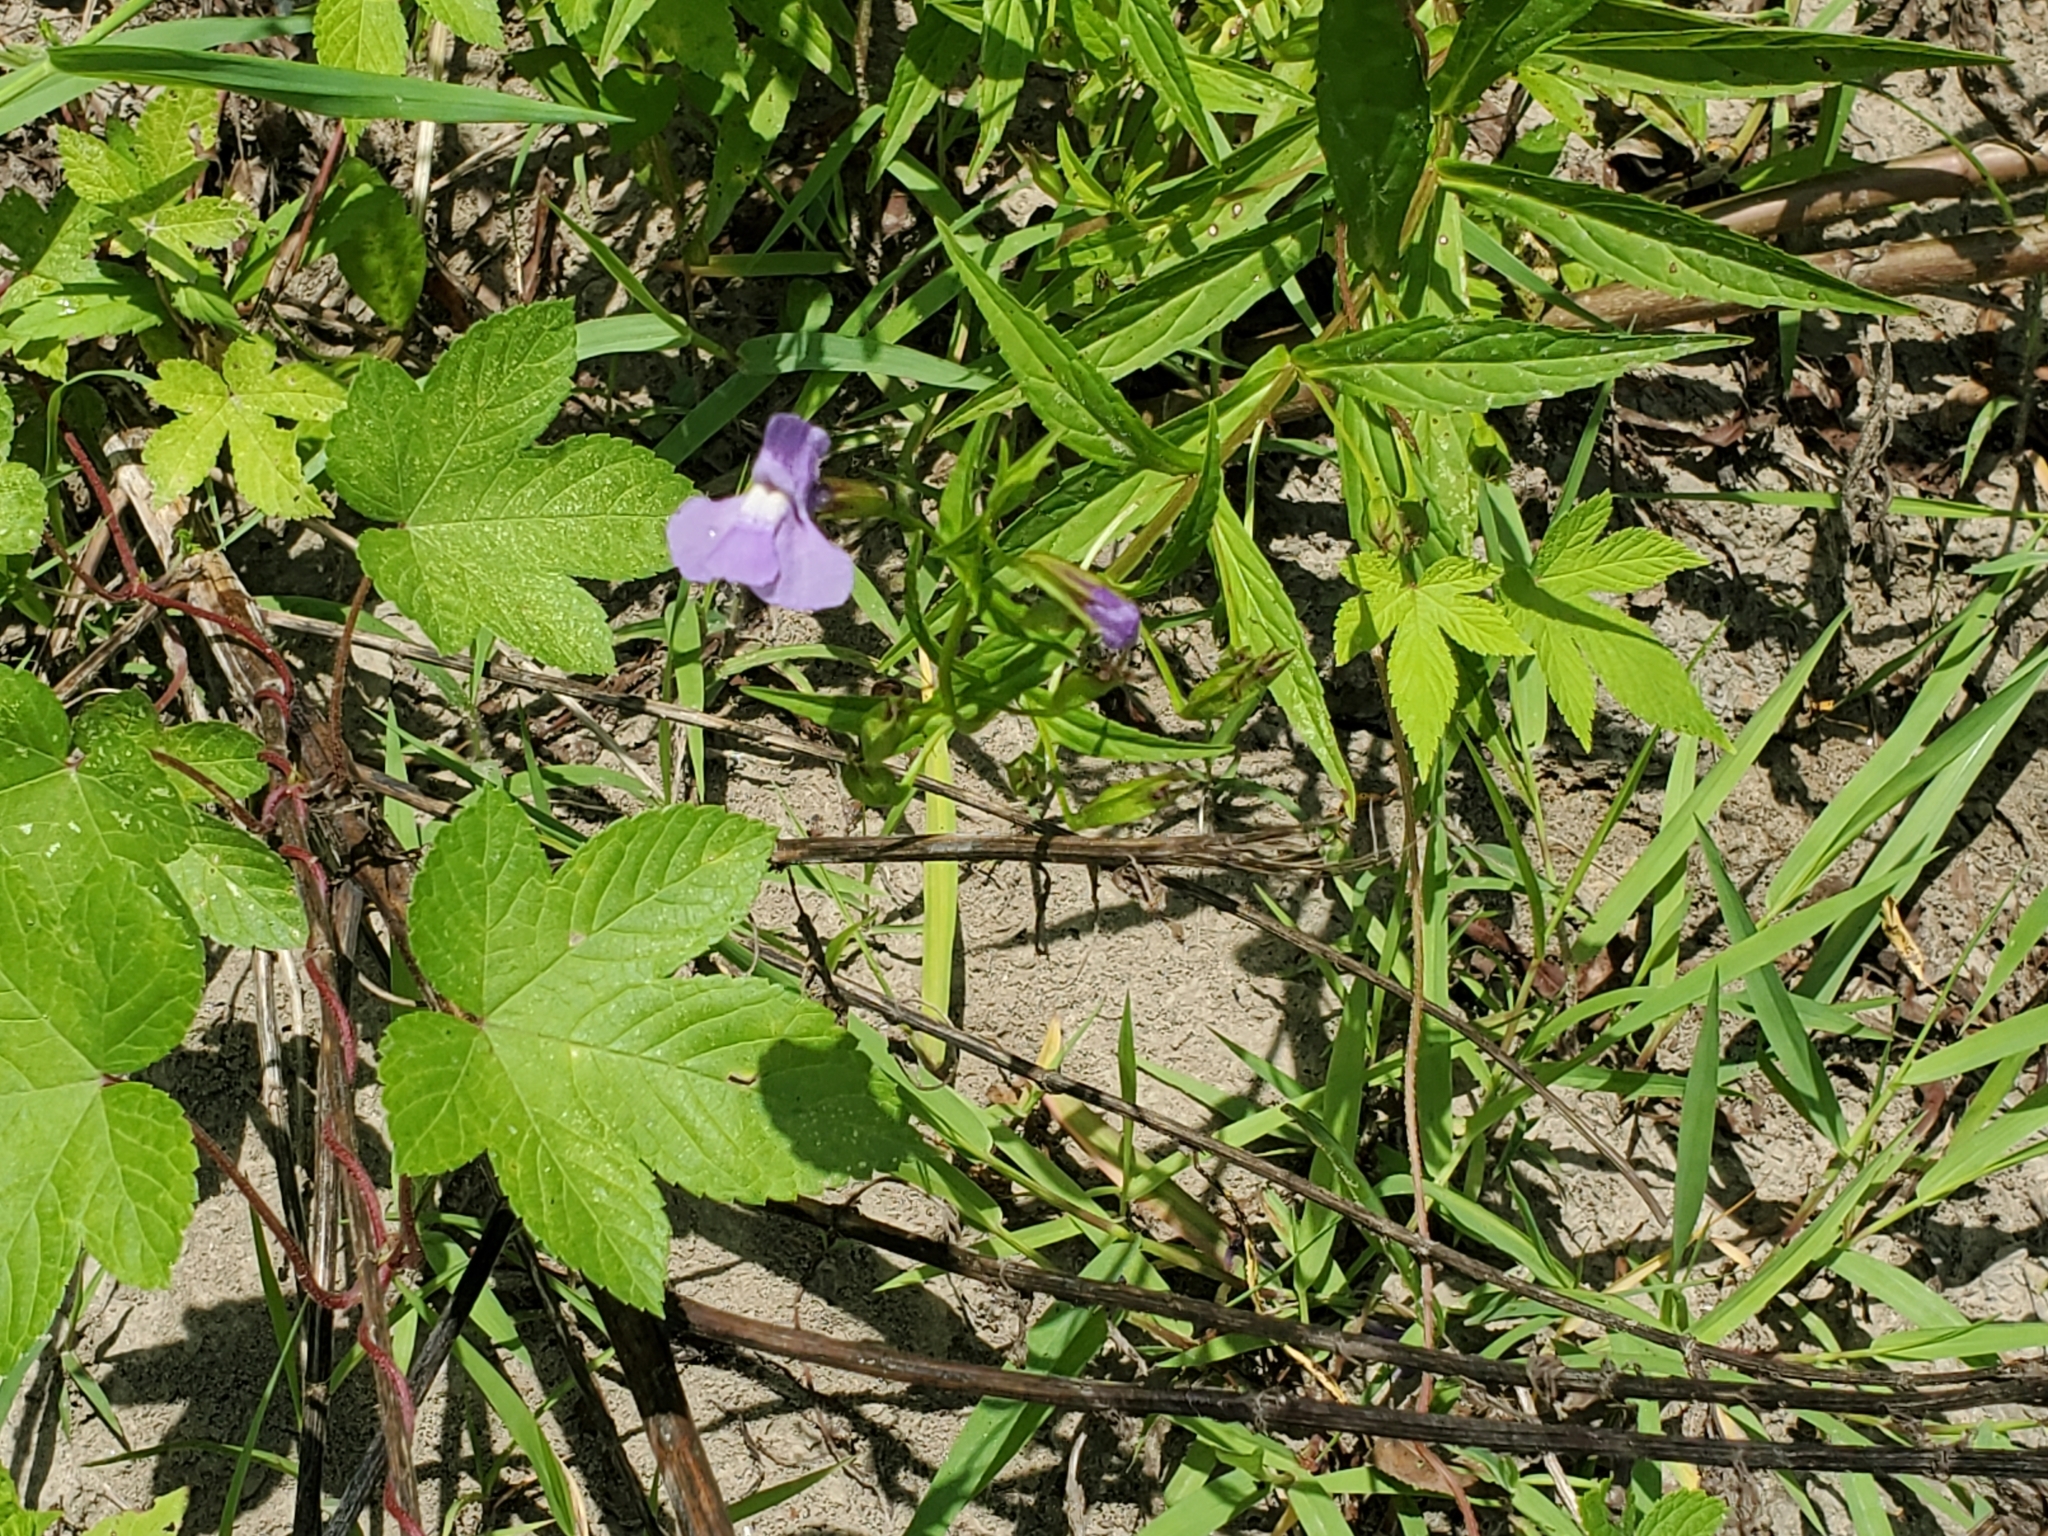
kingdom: Plantae
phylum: Tracheophyta
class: Magnoliopsida
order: Lamiales
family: Phrymaceae
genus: Mimulus
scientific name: Mimulus ringens
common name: Allegheny monkeyflower
